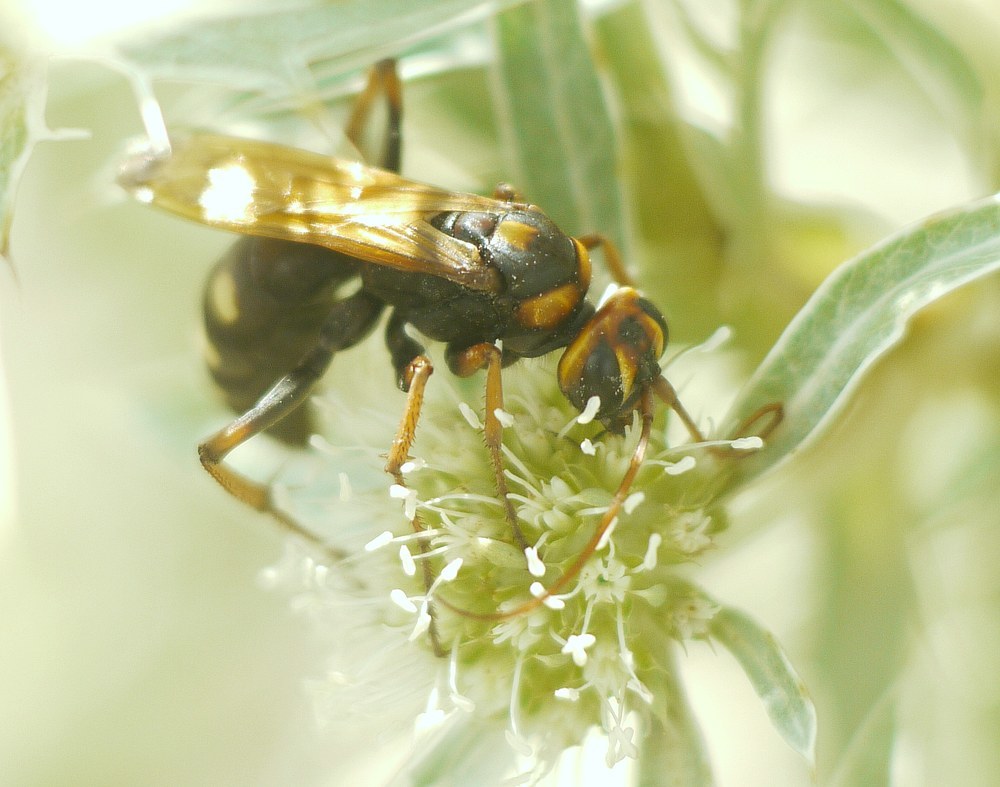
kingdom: Animalia
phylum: Arthropoda
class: Insecta
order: Hymenoptera
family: Pompilidae
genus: Cryptocheilus
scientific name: Cryptocheilus octomaculatus
